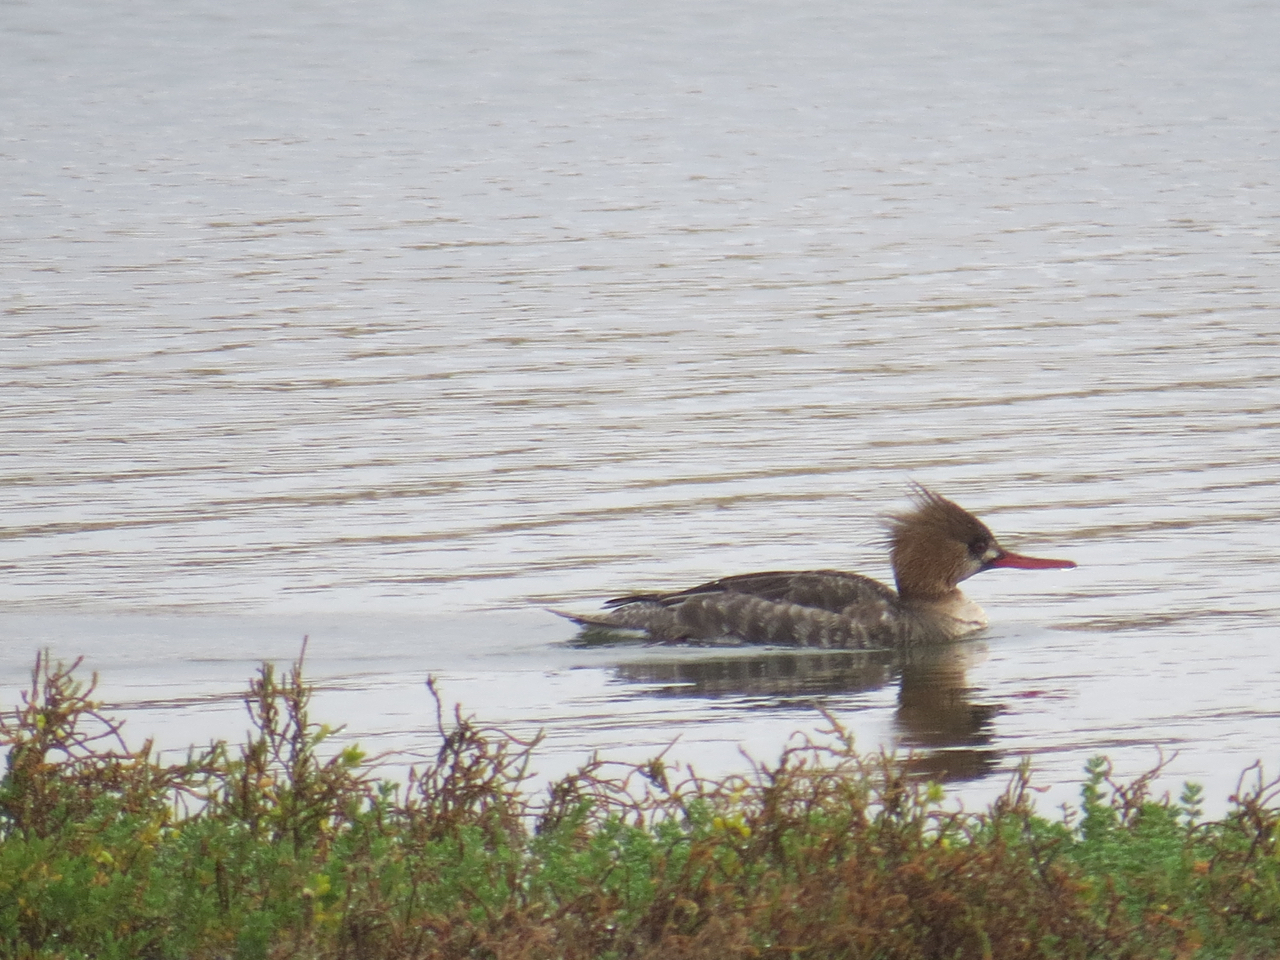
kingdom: Animalia
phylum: Chordata
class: Aves
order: Anseriformes
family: Anatidae
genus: Mergus
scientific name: Mergus serrator
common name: Red-breasted merganser
